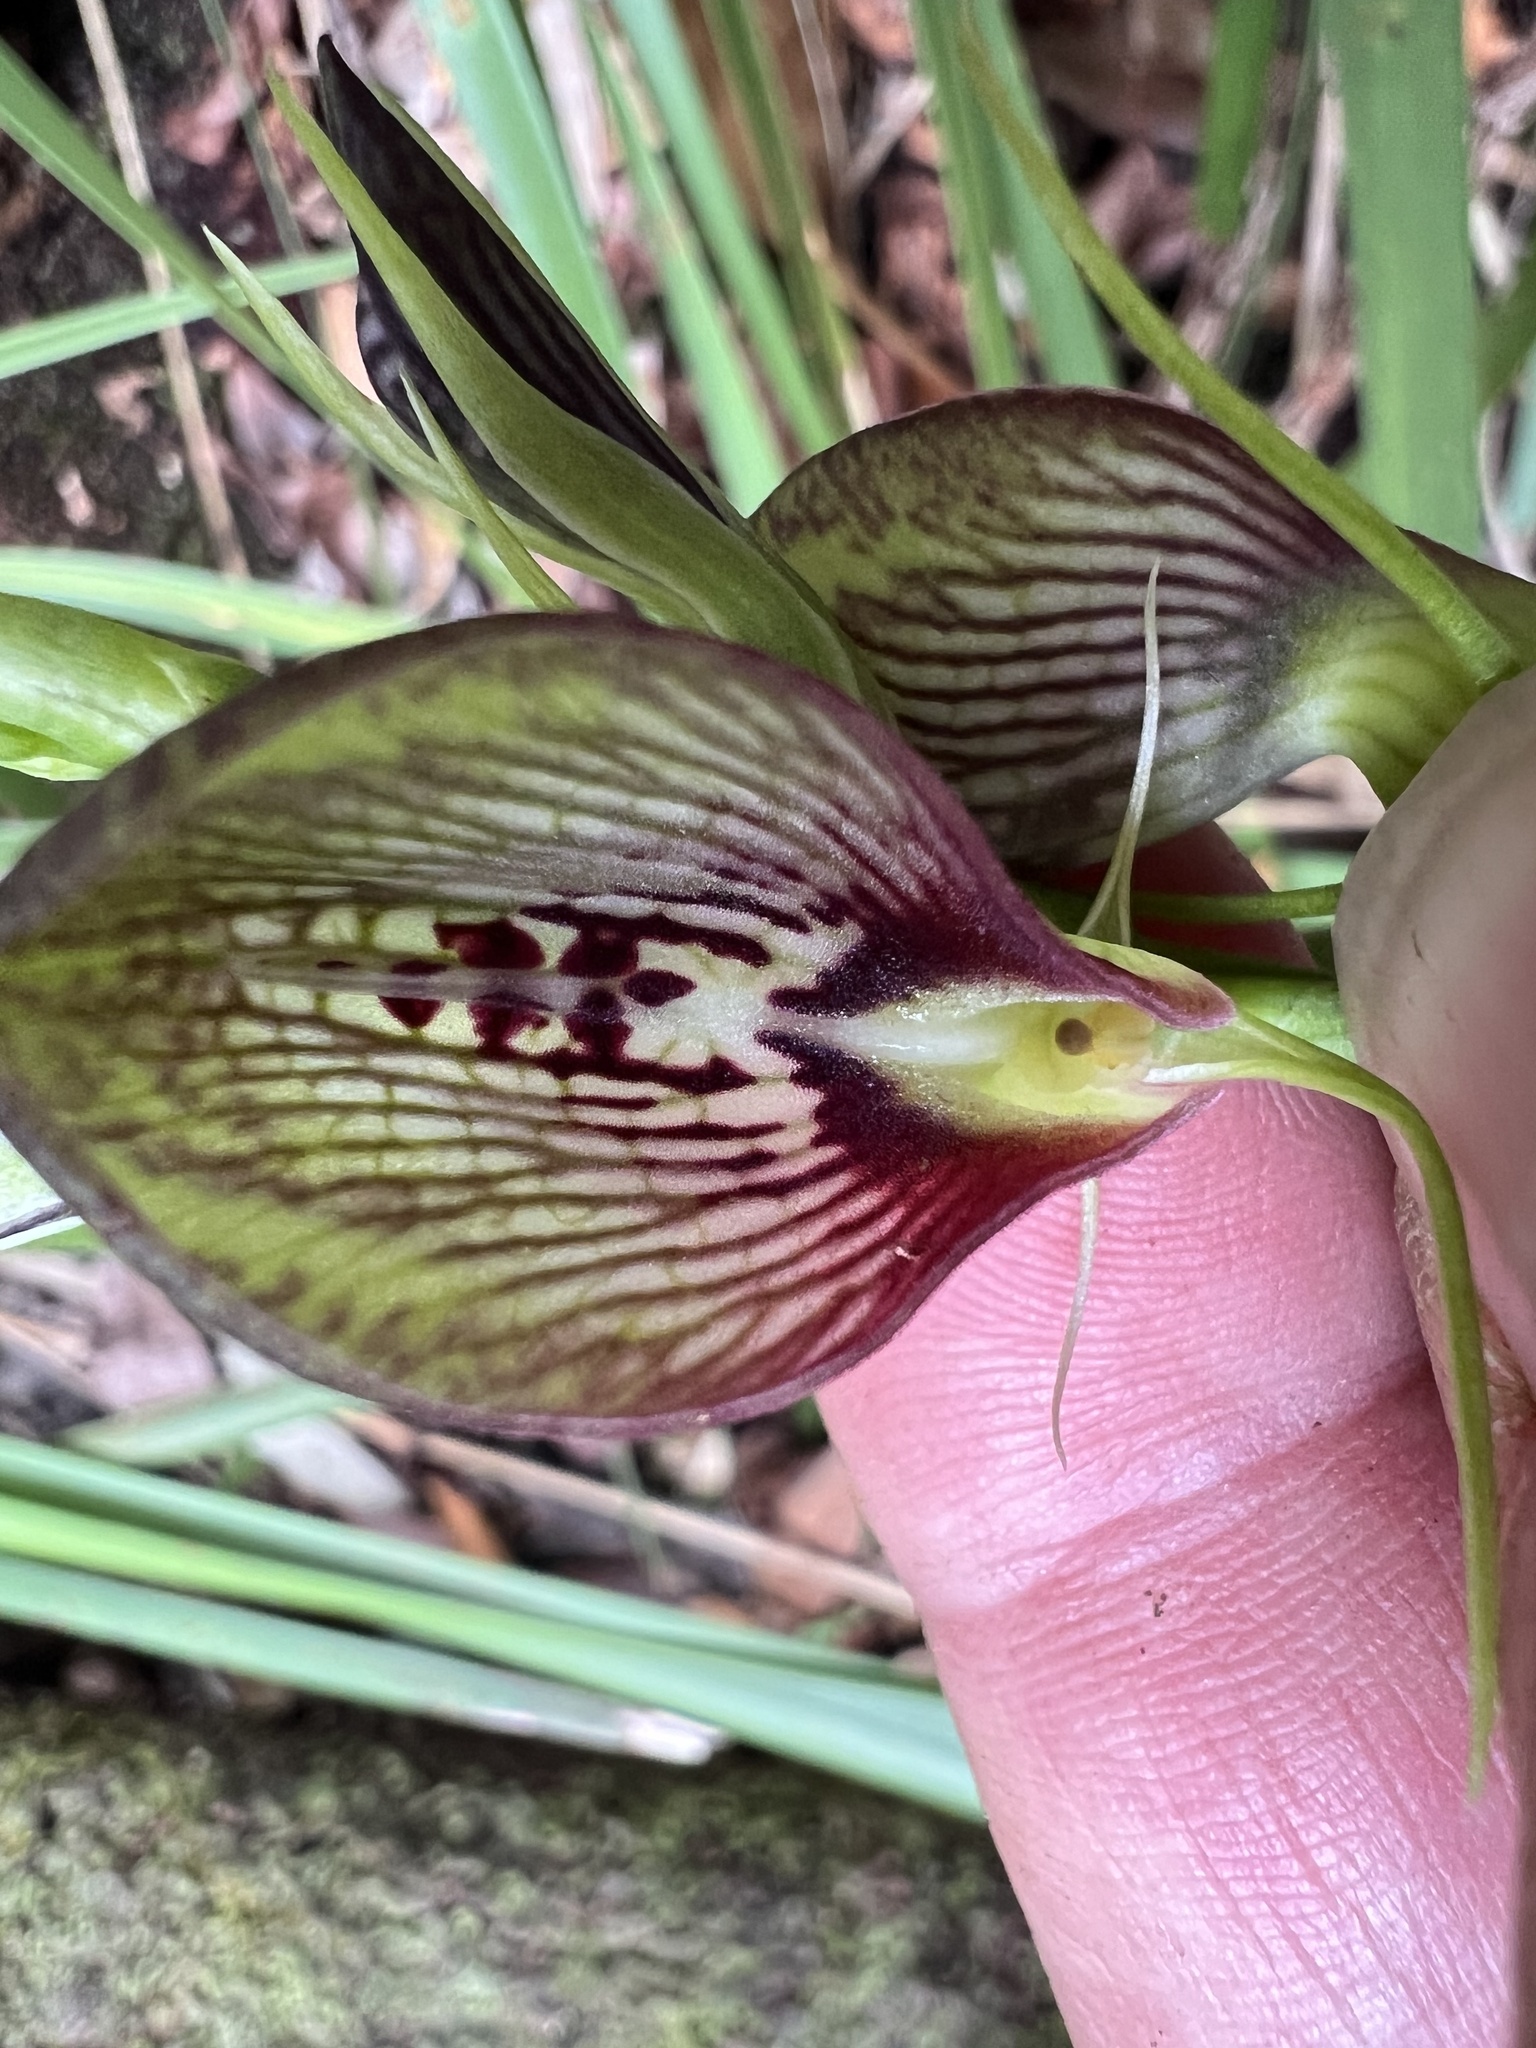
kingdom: Plantae
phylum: Tracheophyta
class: Liliopsida
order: Asparagales
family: Orchidaceae
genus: Cryptostylis
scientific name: Cryptostylis erecta
